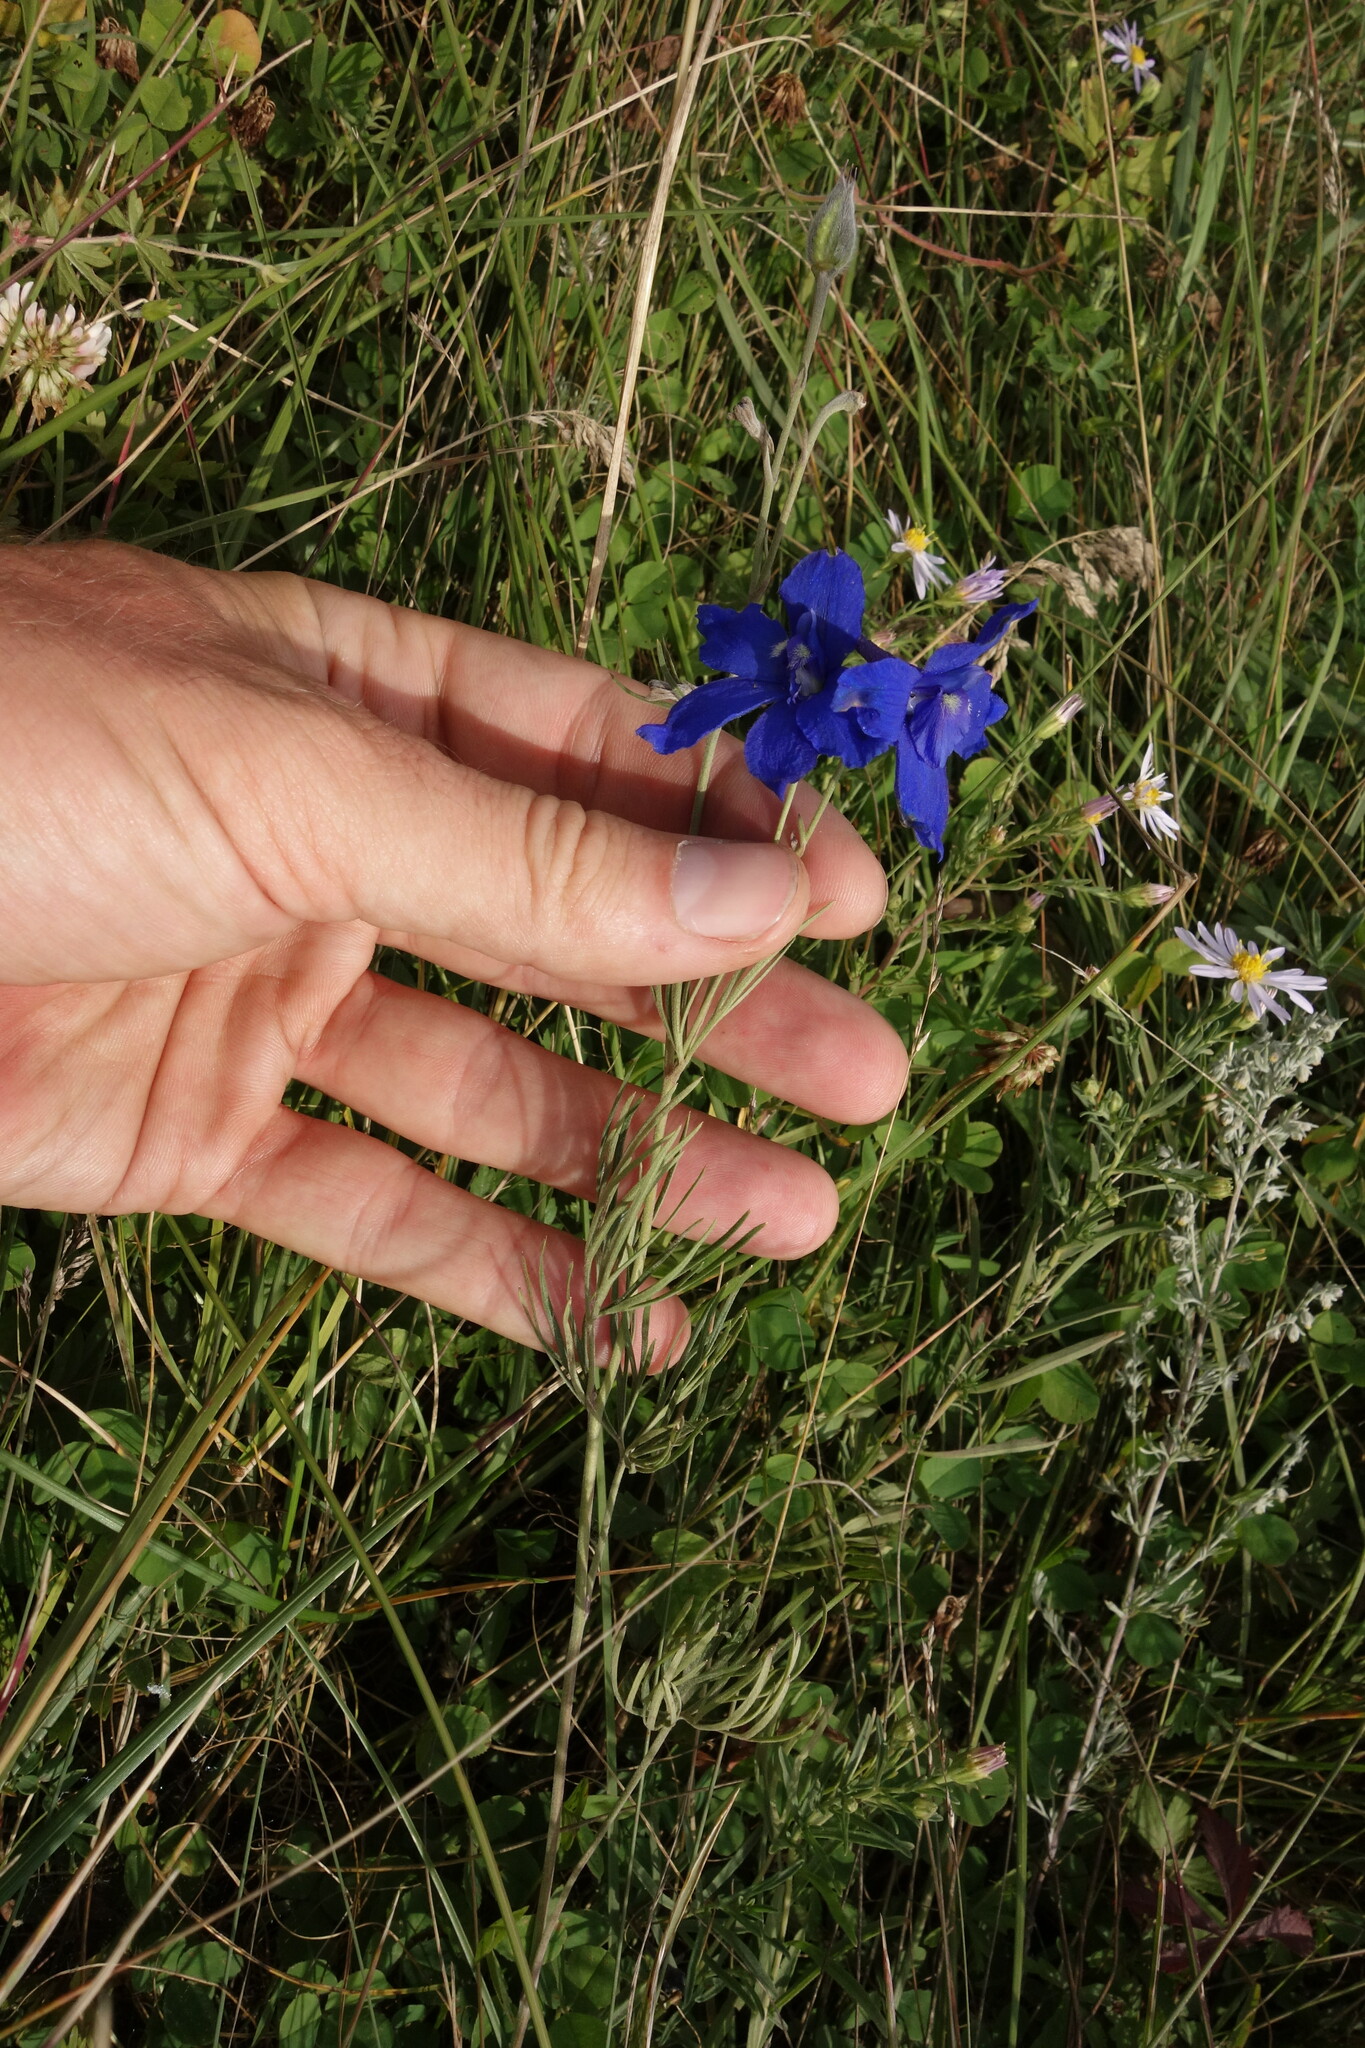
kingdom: Plantae
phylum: Tracheophyta
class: Magnoliopsida
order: Ranunculales
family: Ranunculaceae
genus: Delphinium
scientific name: Delphinium grandiflorum
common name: Siberian larkspur
